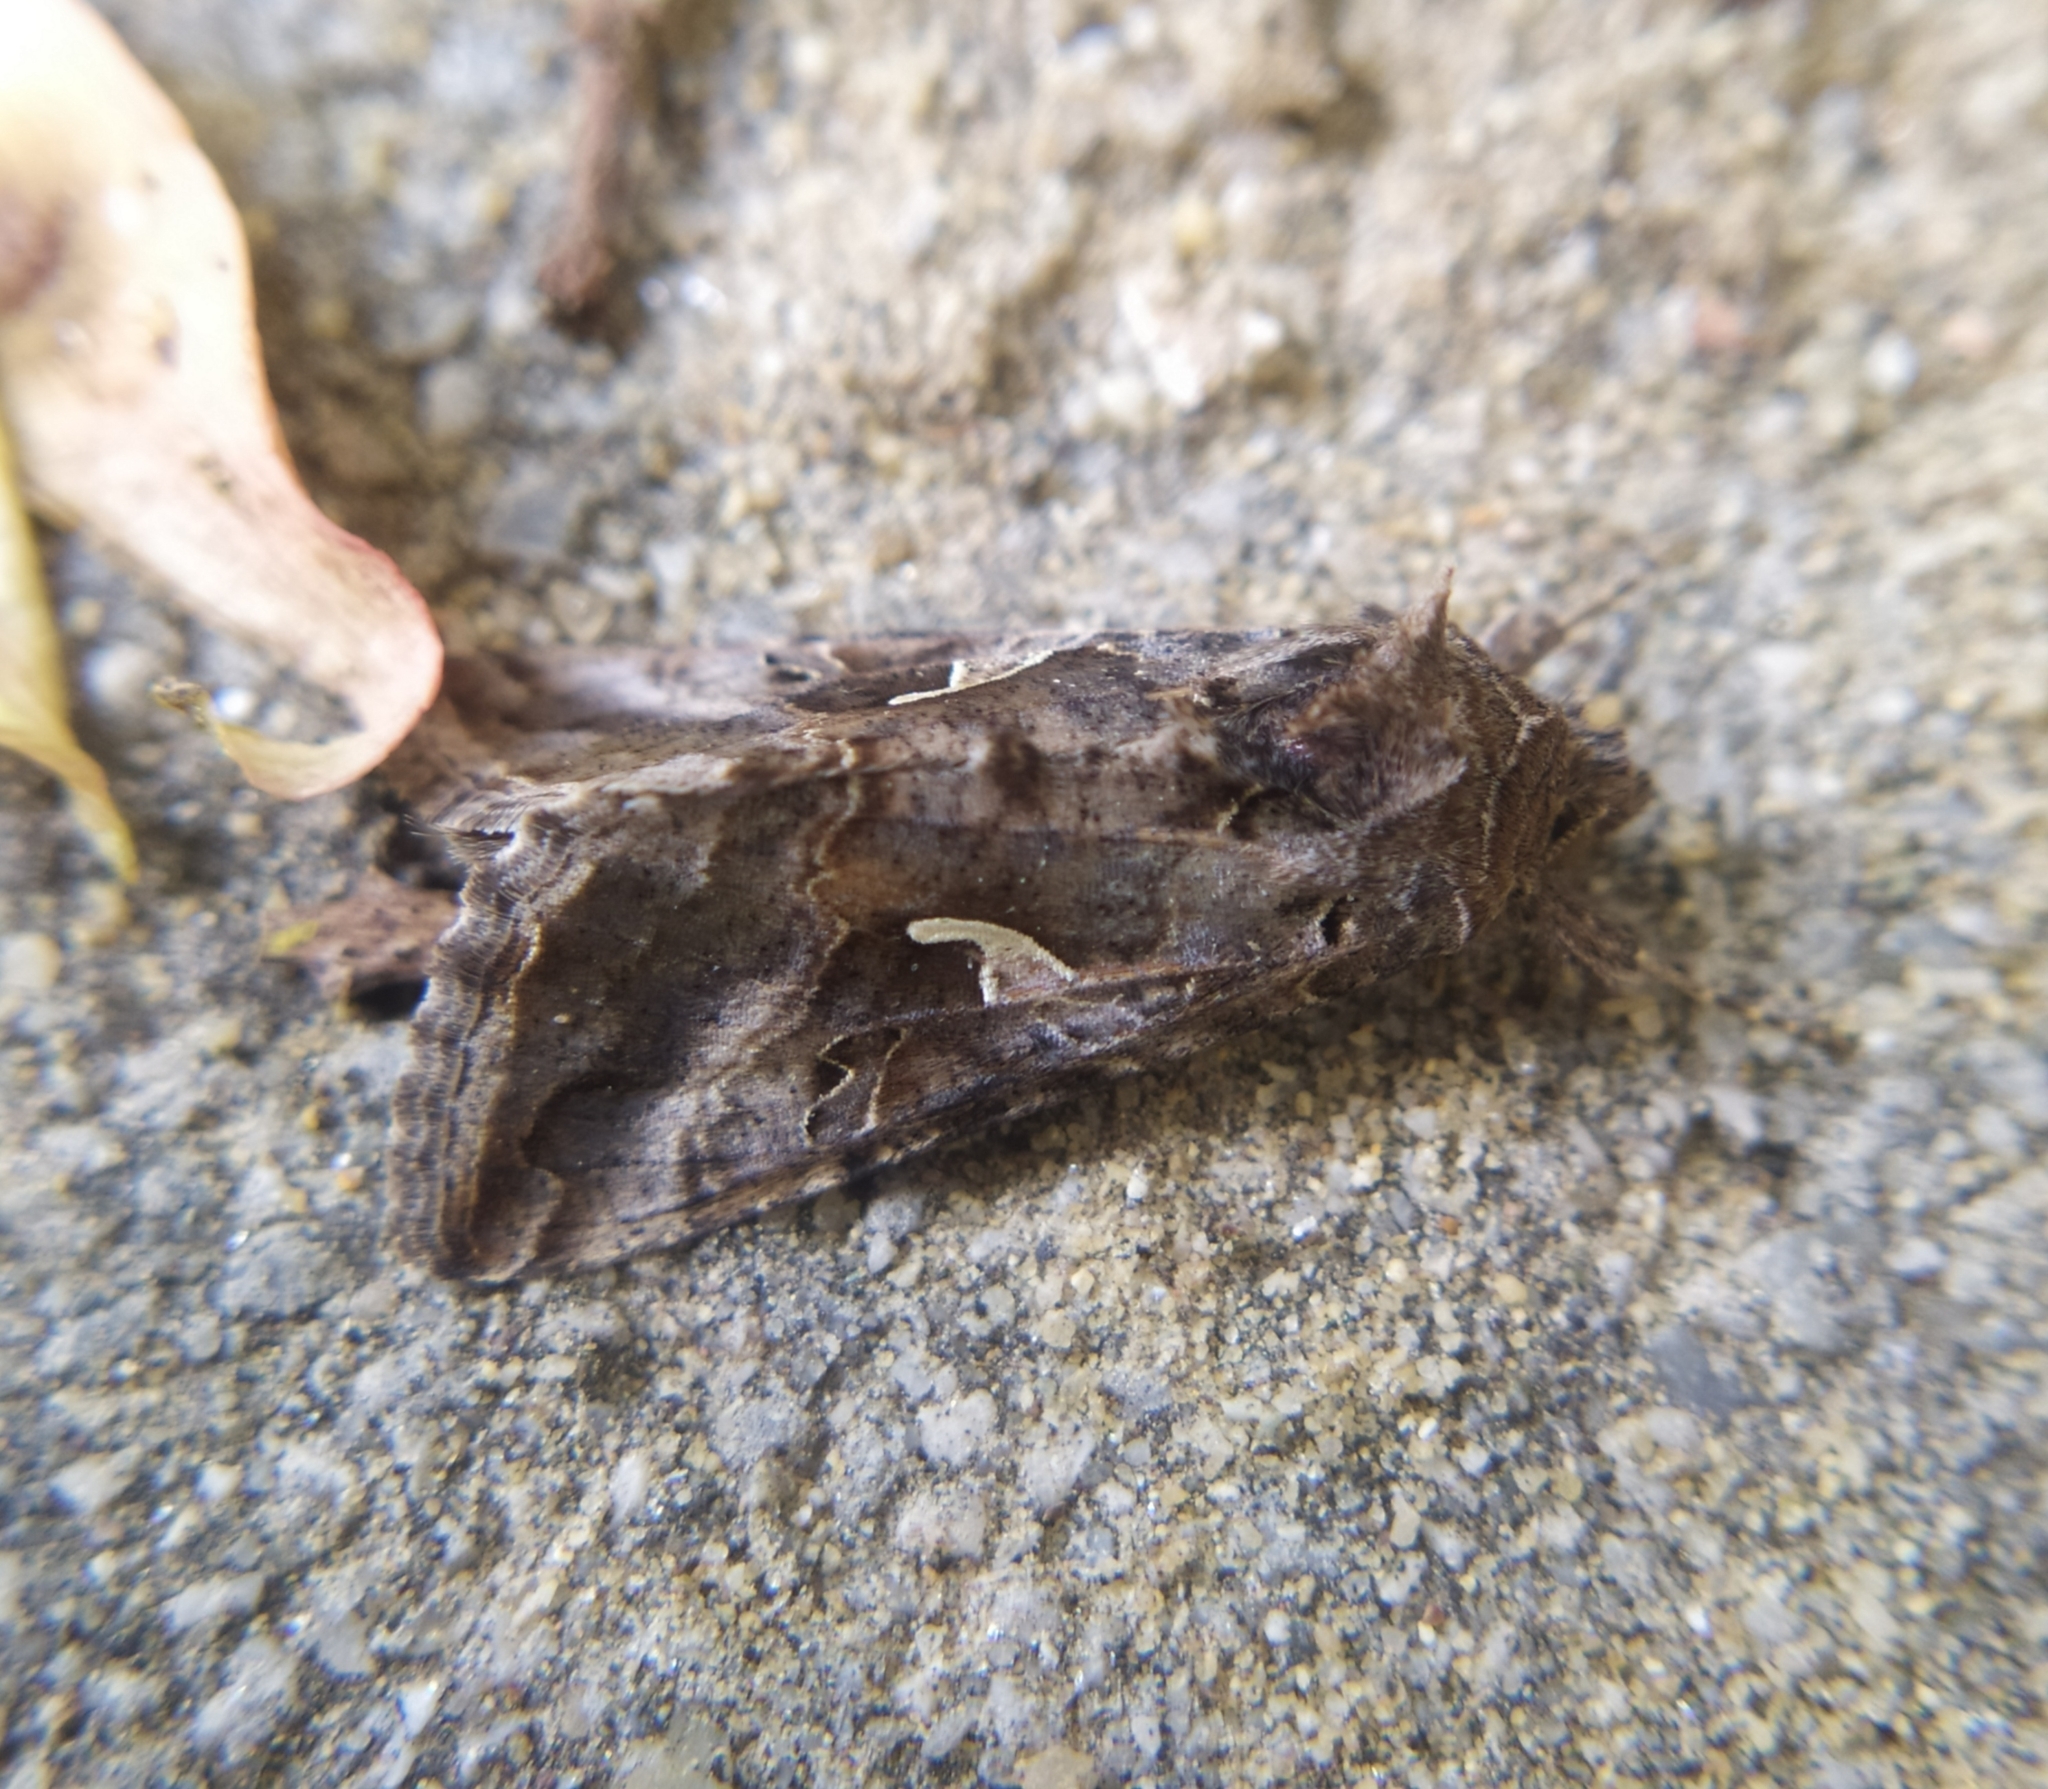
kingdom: Animalia
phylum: Arthropoda
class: Insecta
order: Lepidoptera
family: Noctuidae
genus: Autographa
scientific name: Autographa gamma
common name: Silver y
